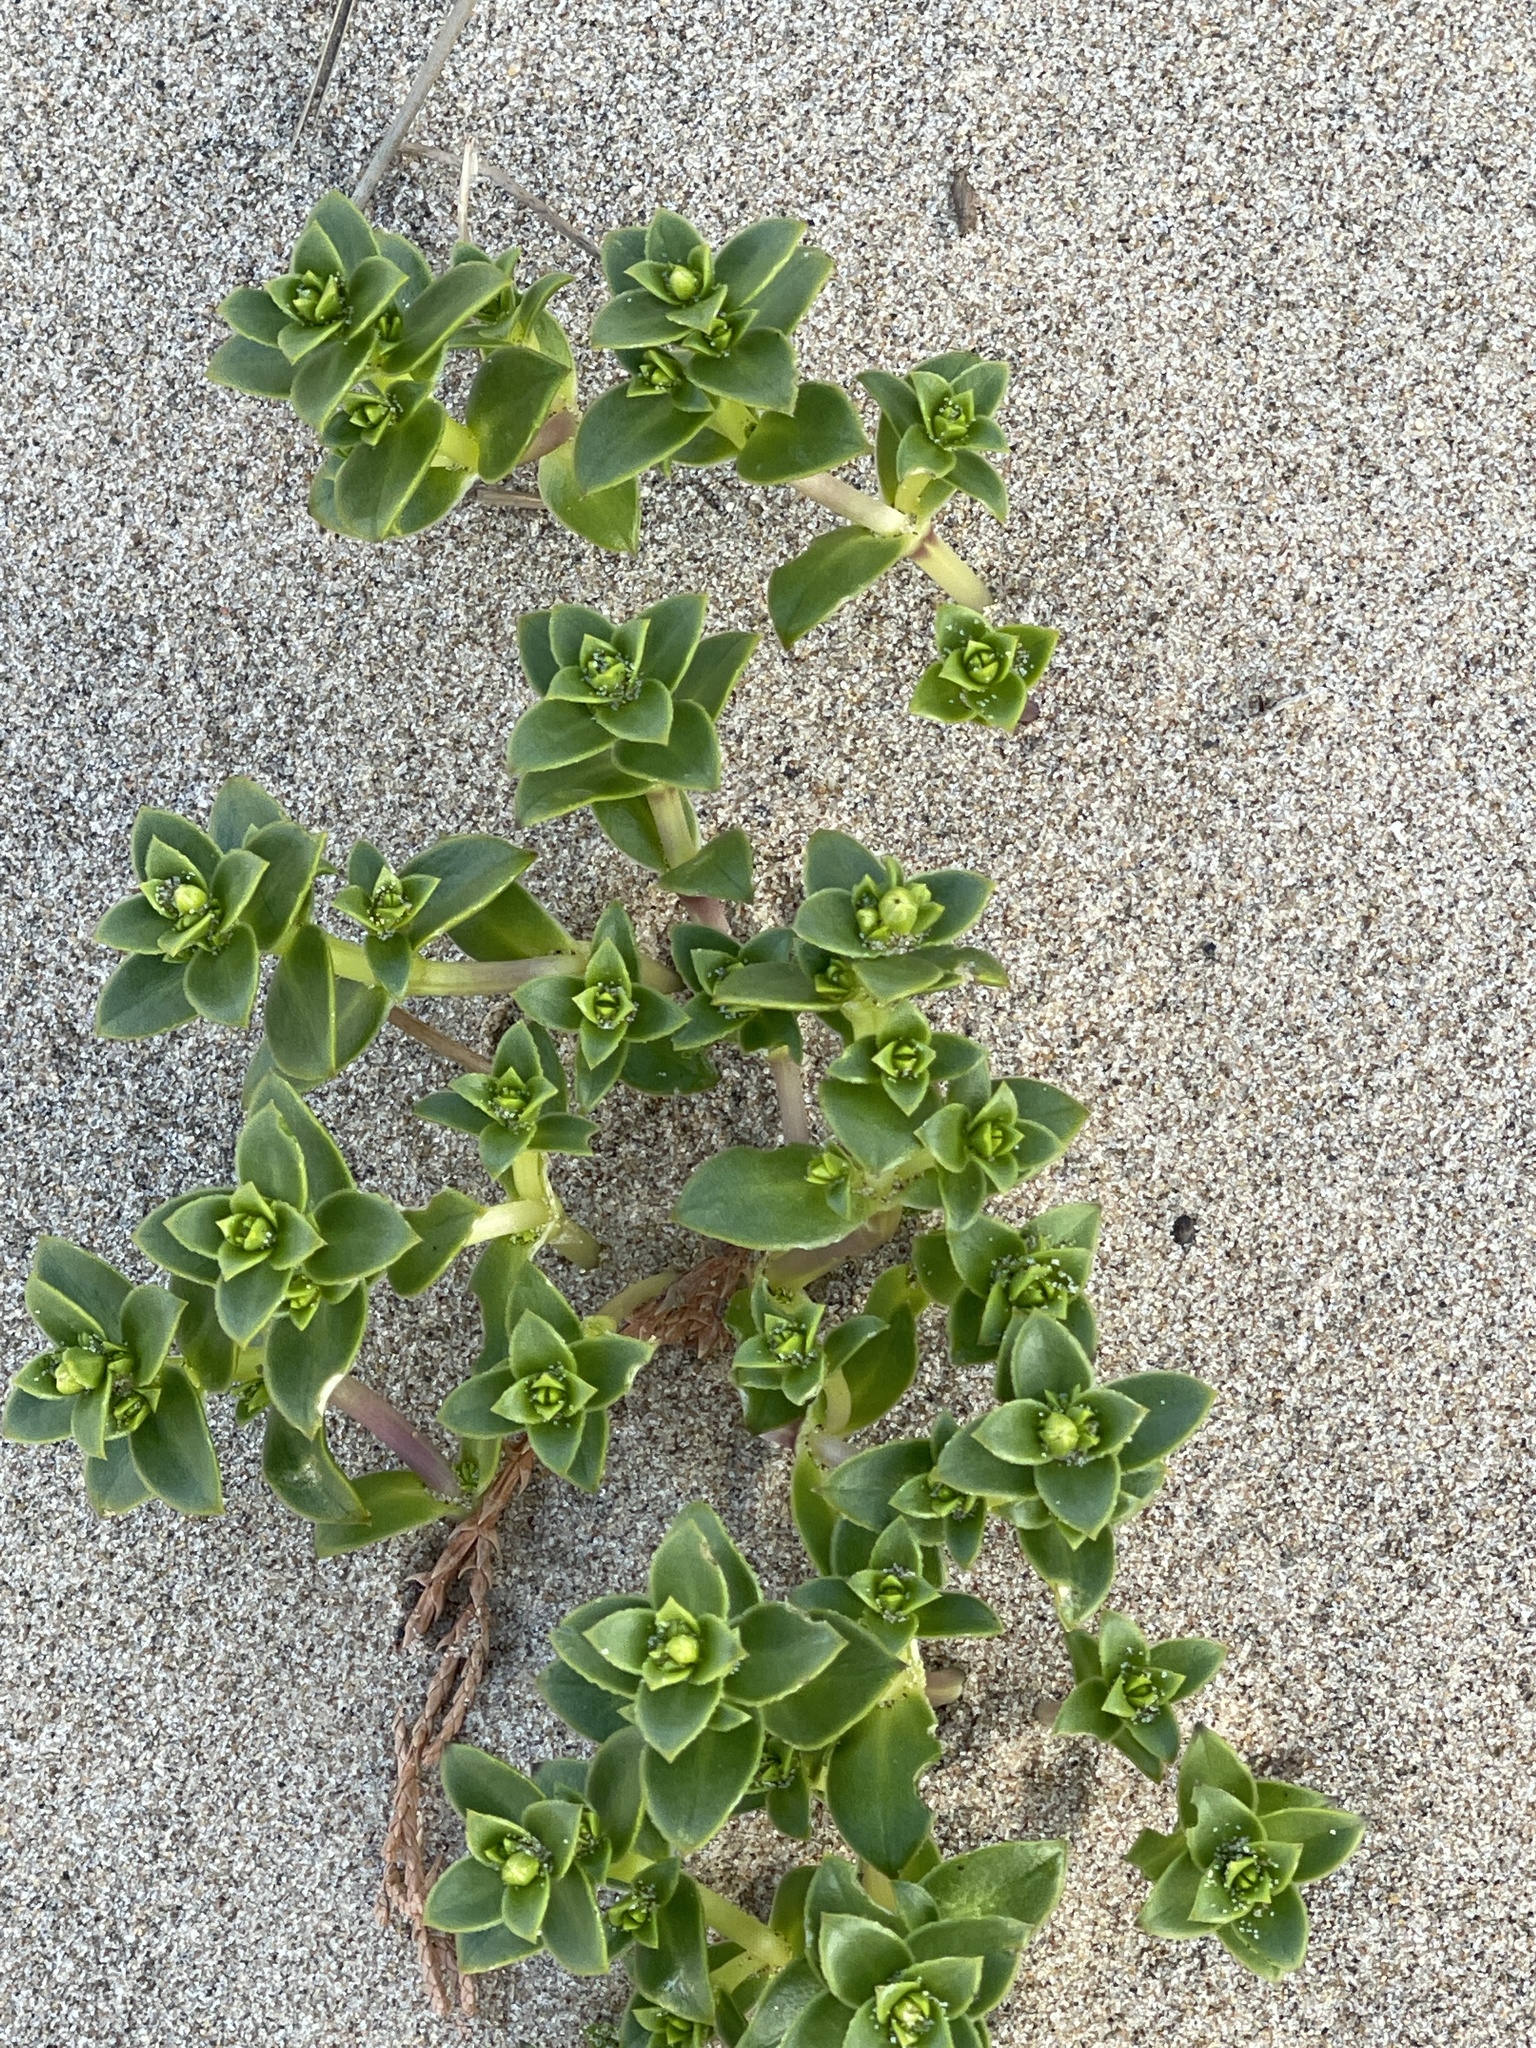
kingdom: Plantae
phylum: Tracheophyta
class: Magnoliopsida
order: Caryophyllales
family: Caryophyllaceae
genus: Honckenya
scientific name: Honckenya peploides
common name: Sea sandwort
